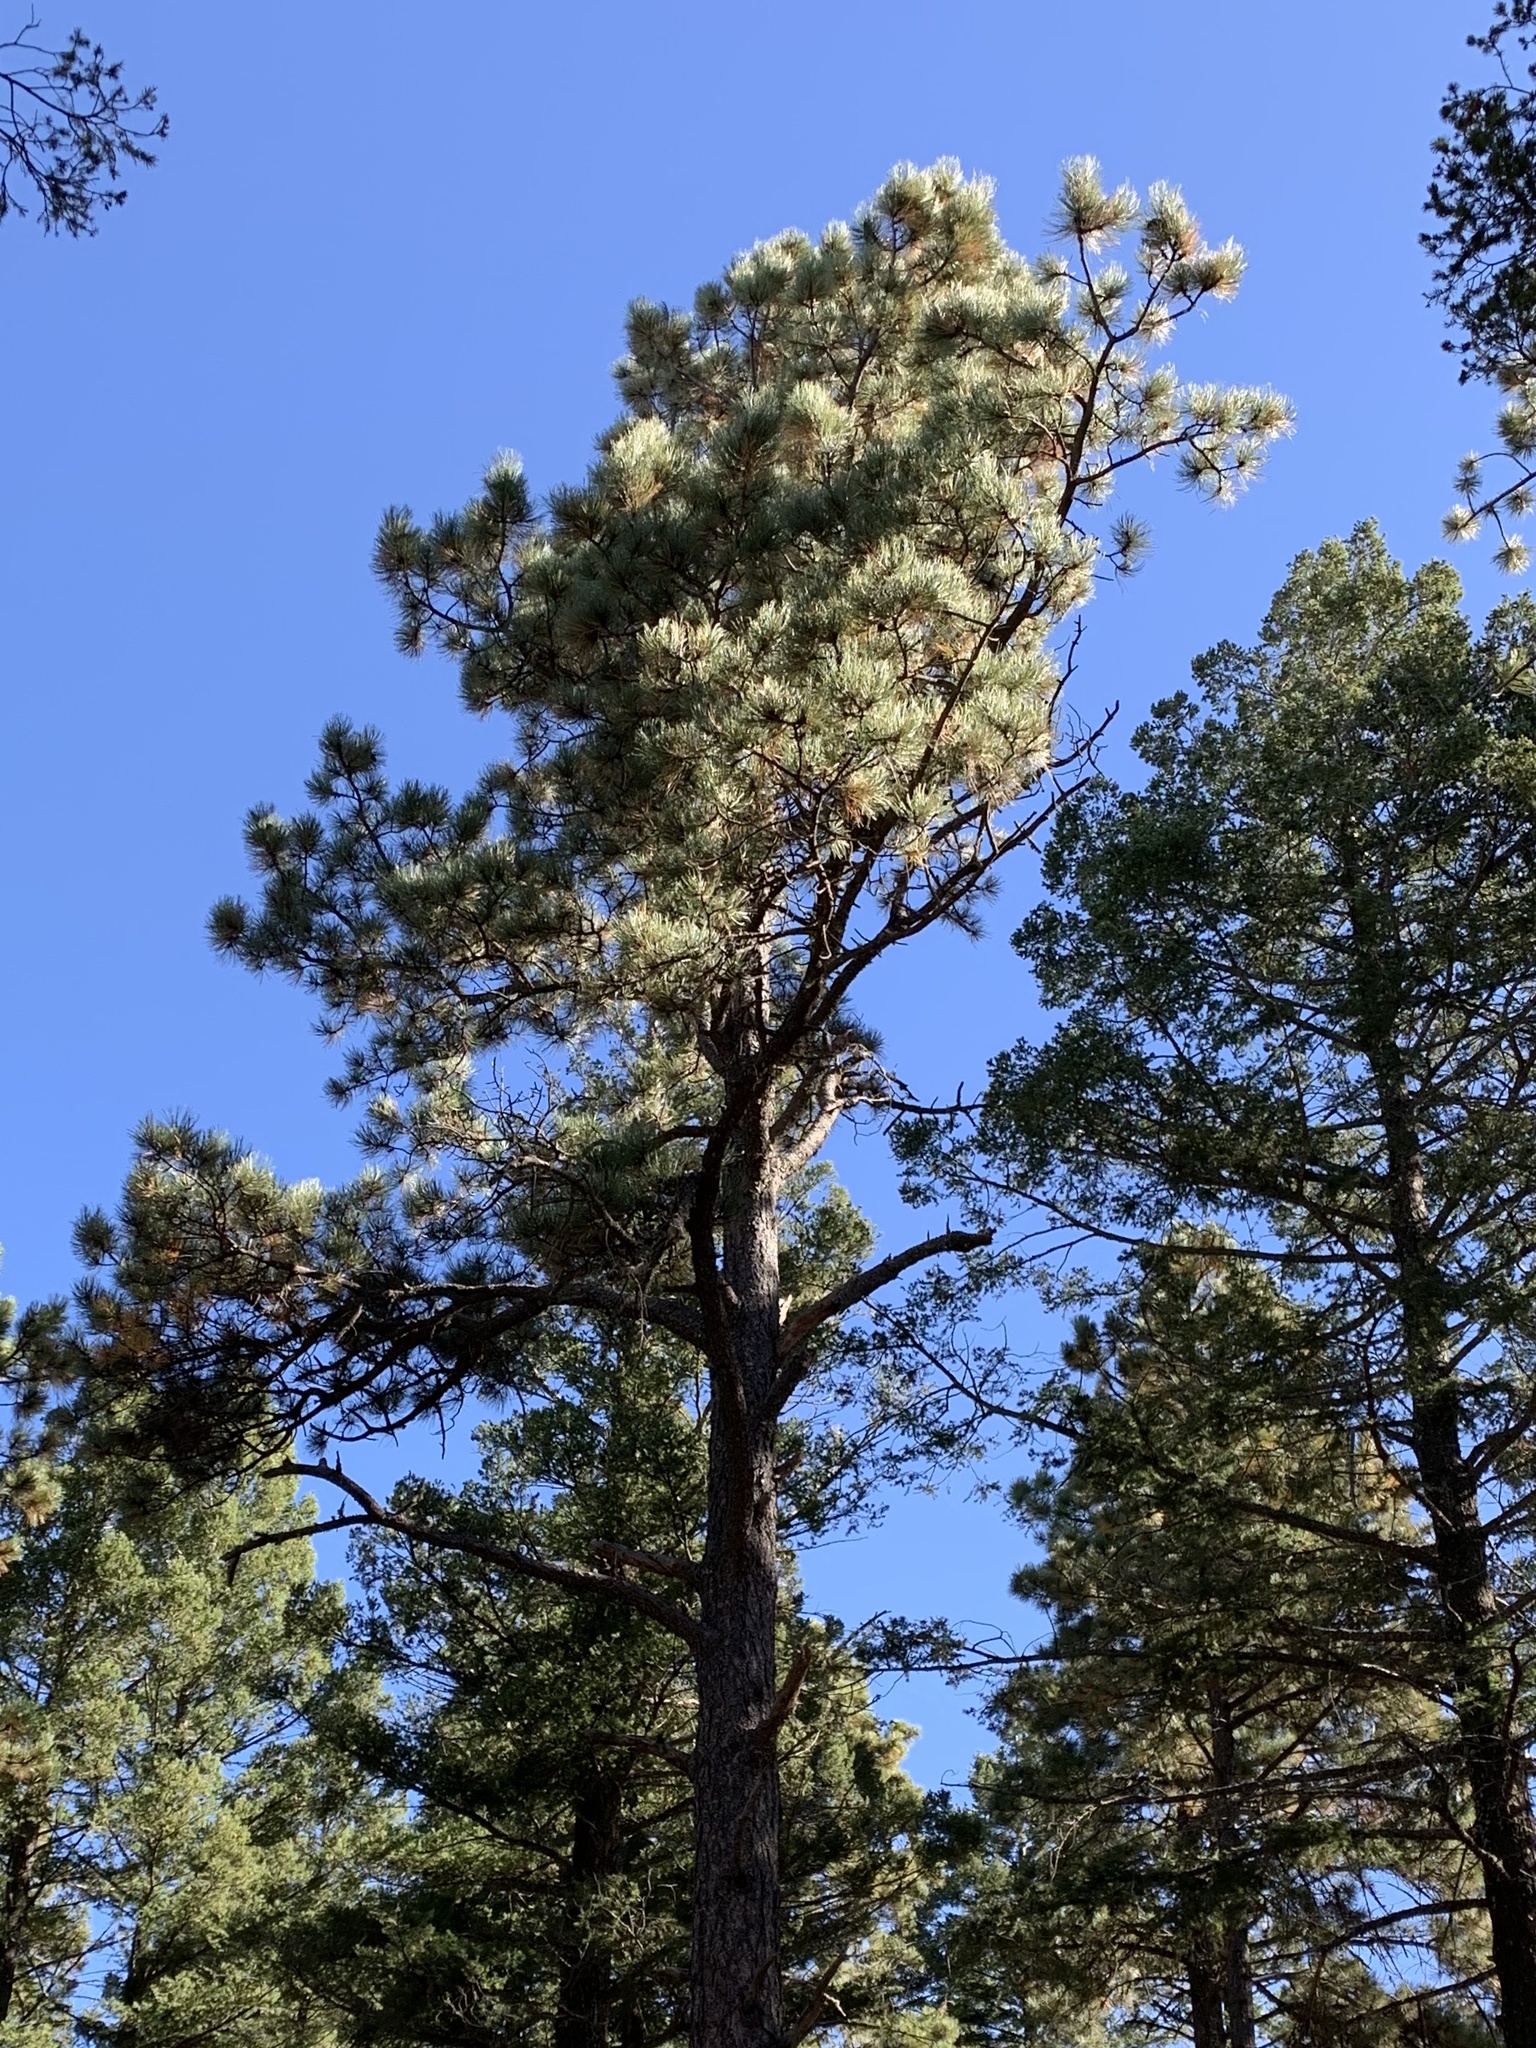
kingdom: Plantae
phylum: Tracheophyta
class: Pinopsida
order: Pinales
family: Pinaceae
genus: Pinus
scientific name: Pinus ponderosa
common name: Western yellow-pine
